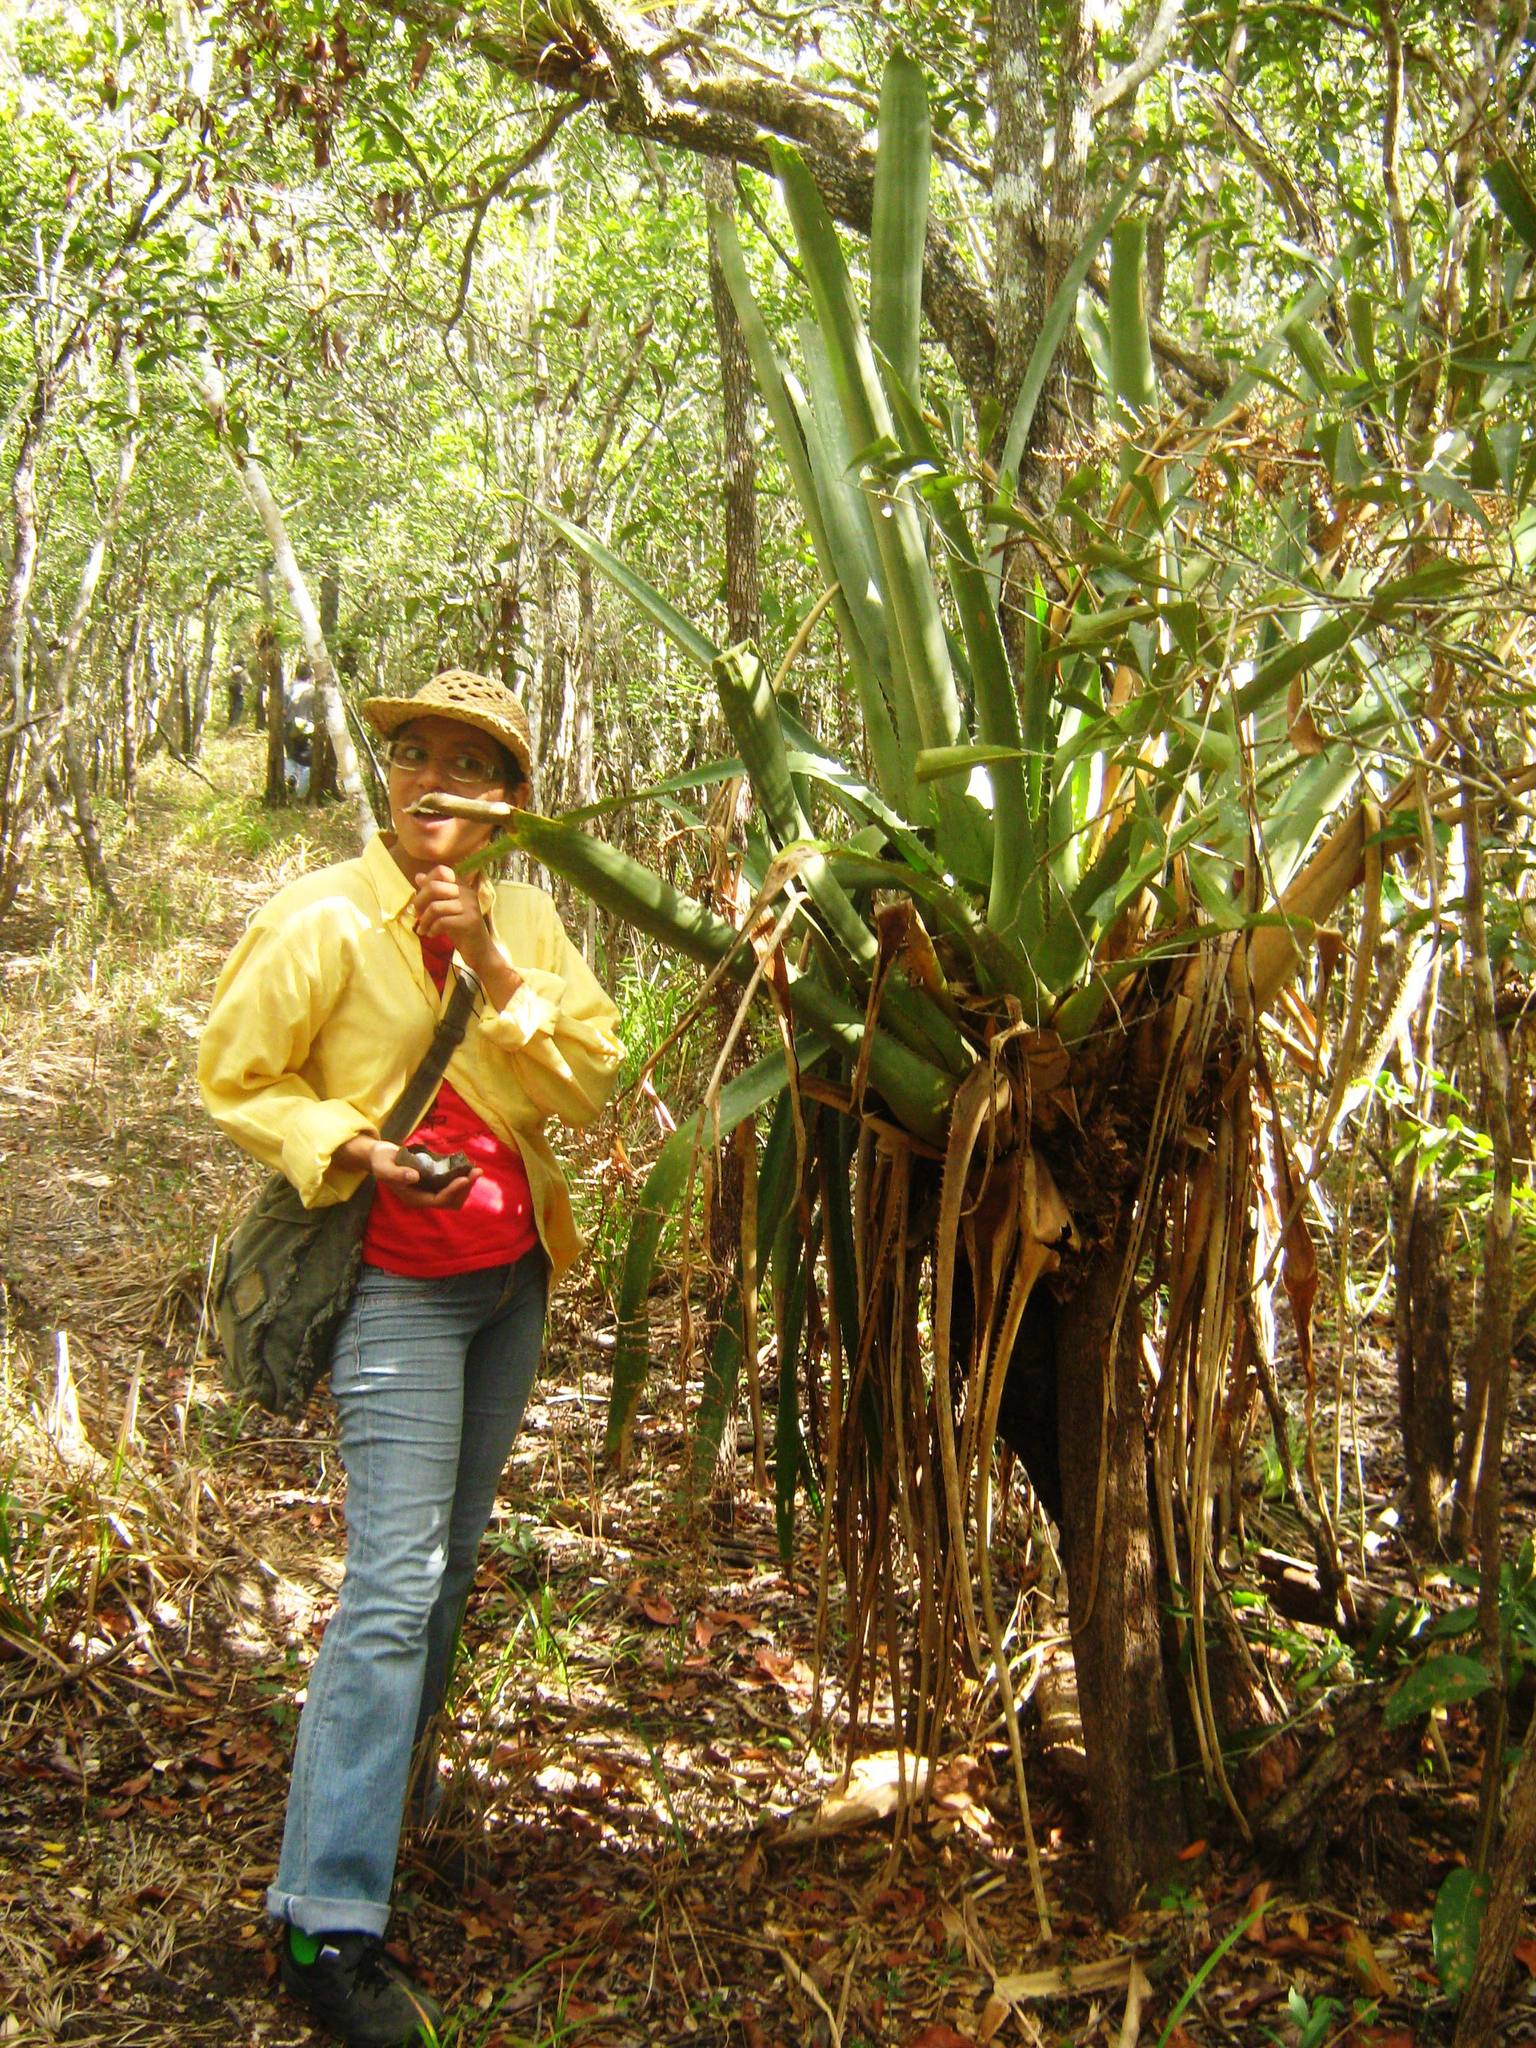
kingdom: Plantae
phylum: Tracheophyta
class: Liliopsida
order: Poales
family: Bromeliaceae
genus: Aechmea
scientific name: Aechmea bracteata
